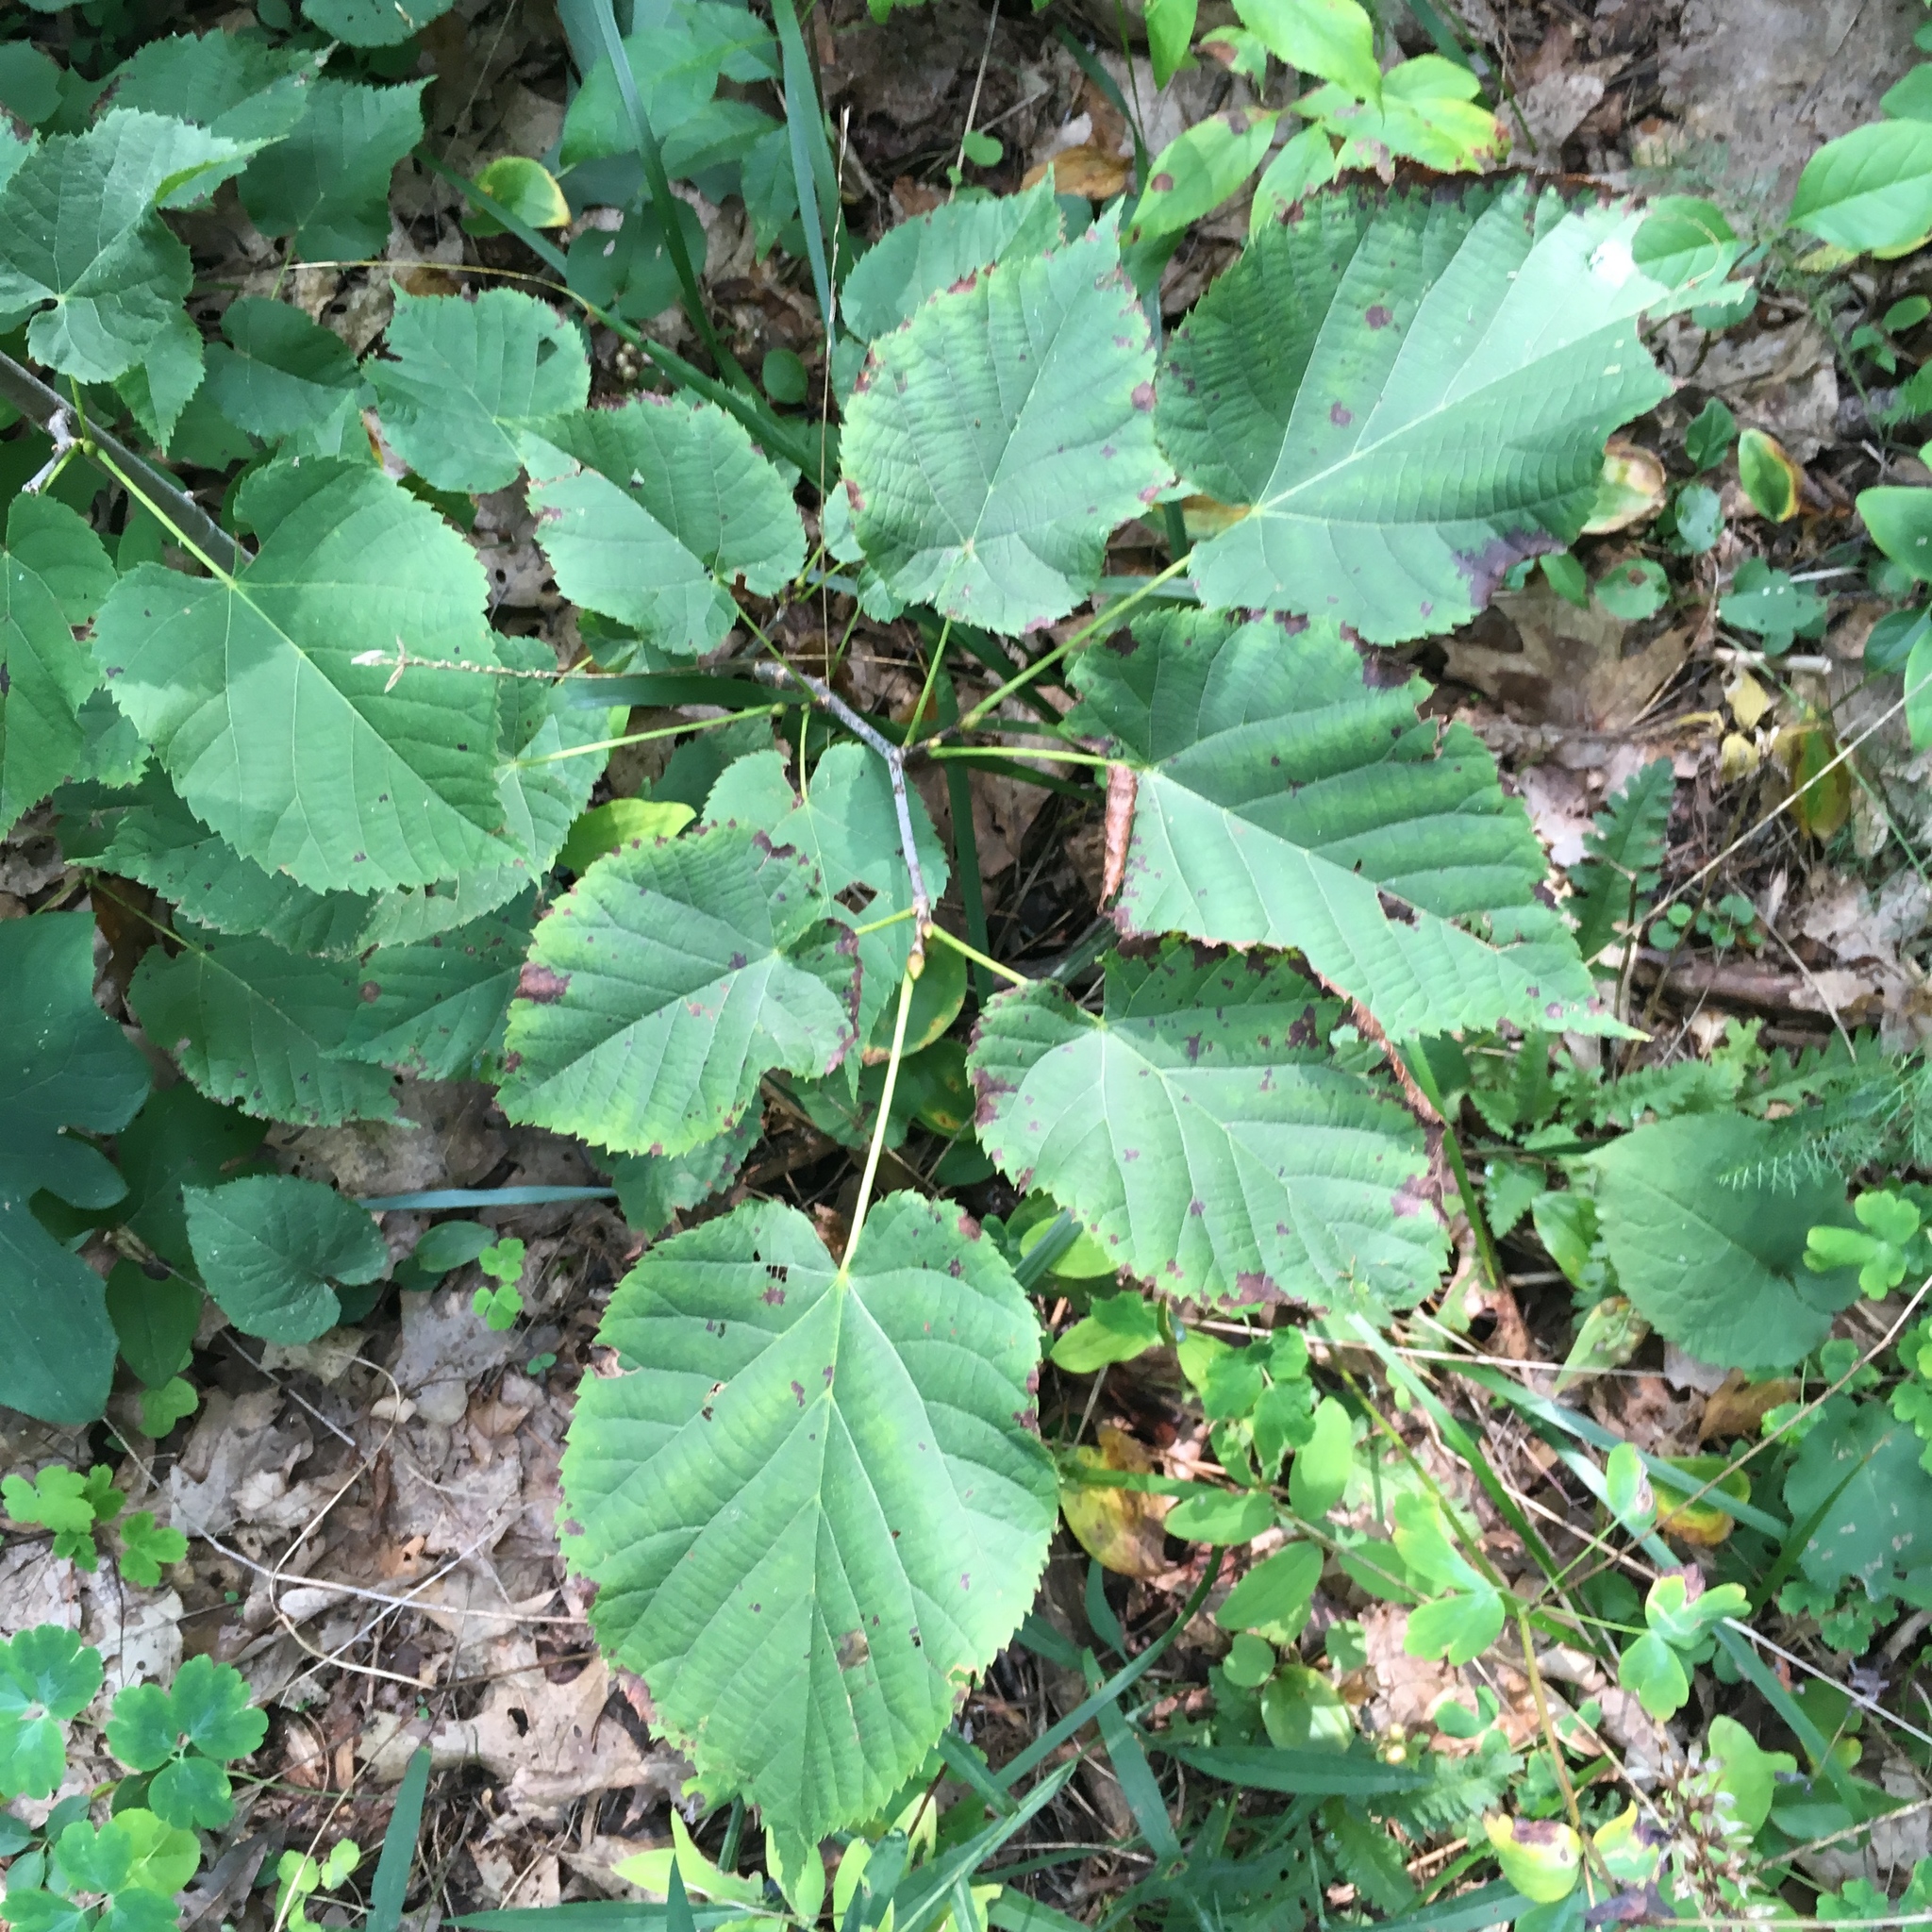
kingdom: Plantae
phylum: Tracheophyta
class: Magnoliopsida
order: Malvales
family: Malvaceae
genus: Tilia
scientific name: Tilia americana
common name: Basswood
